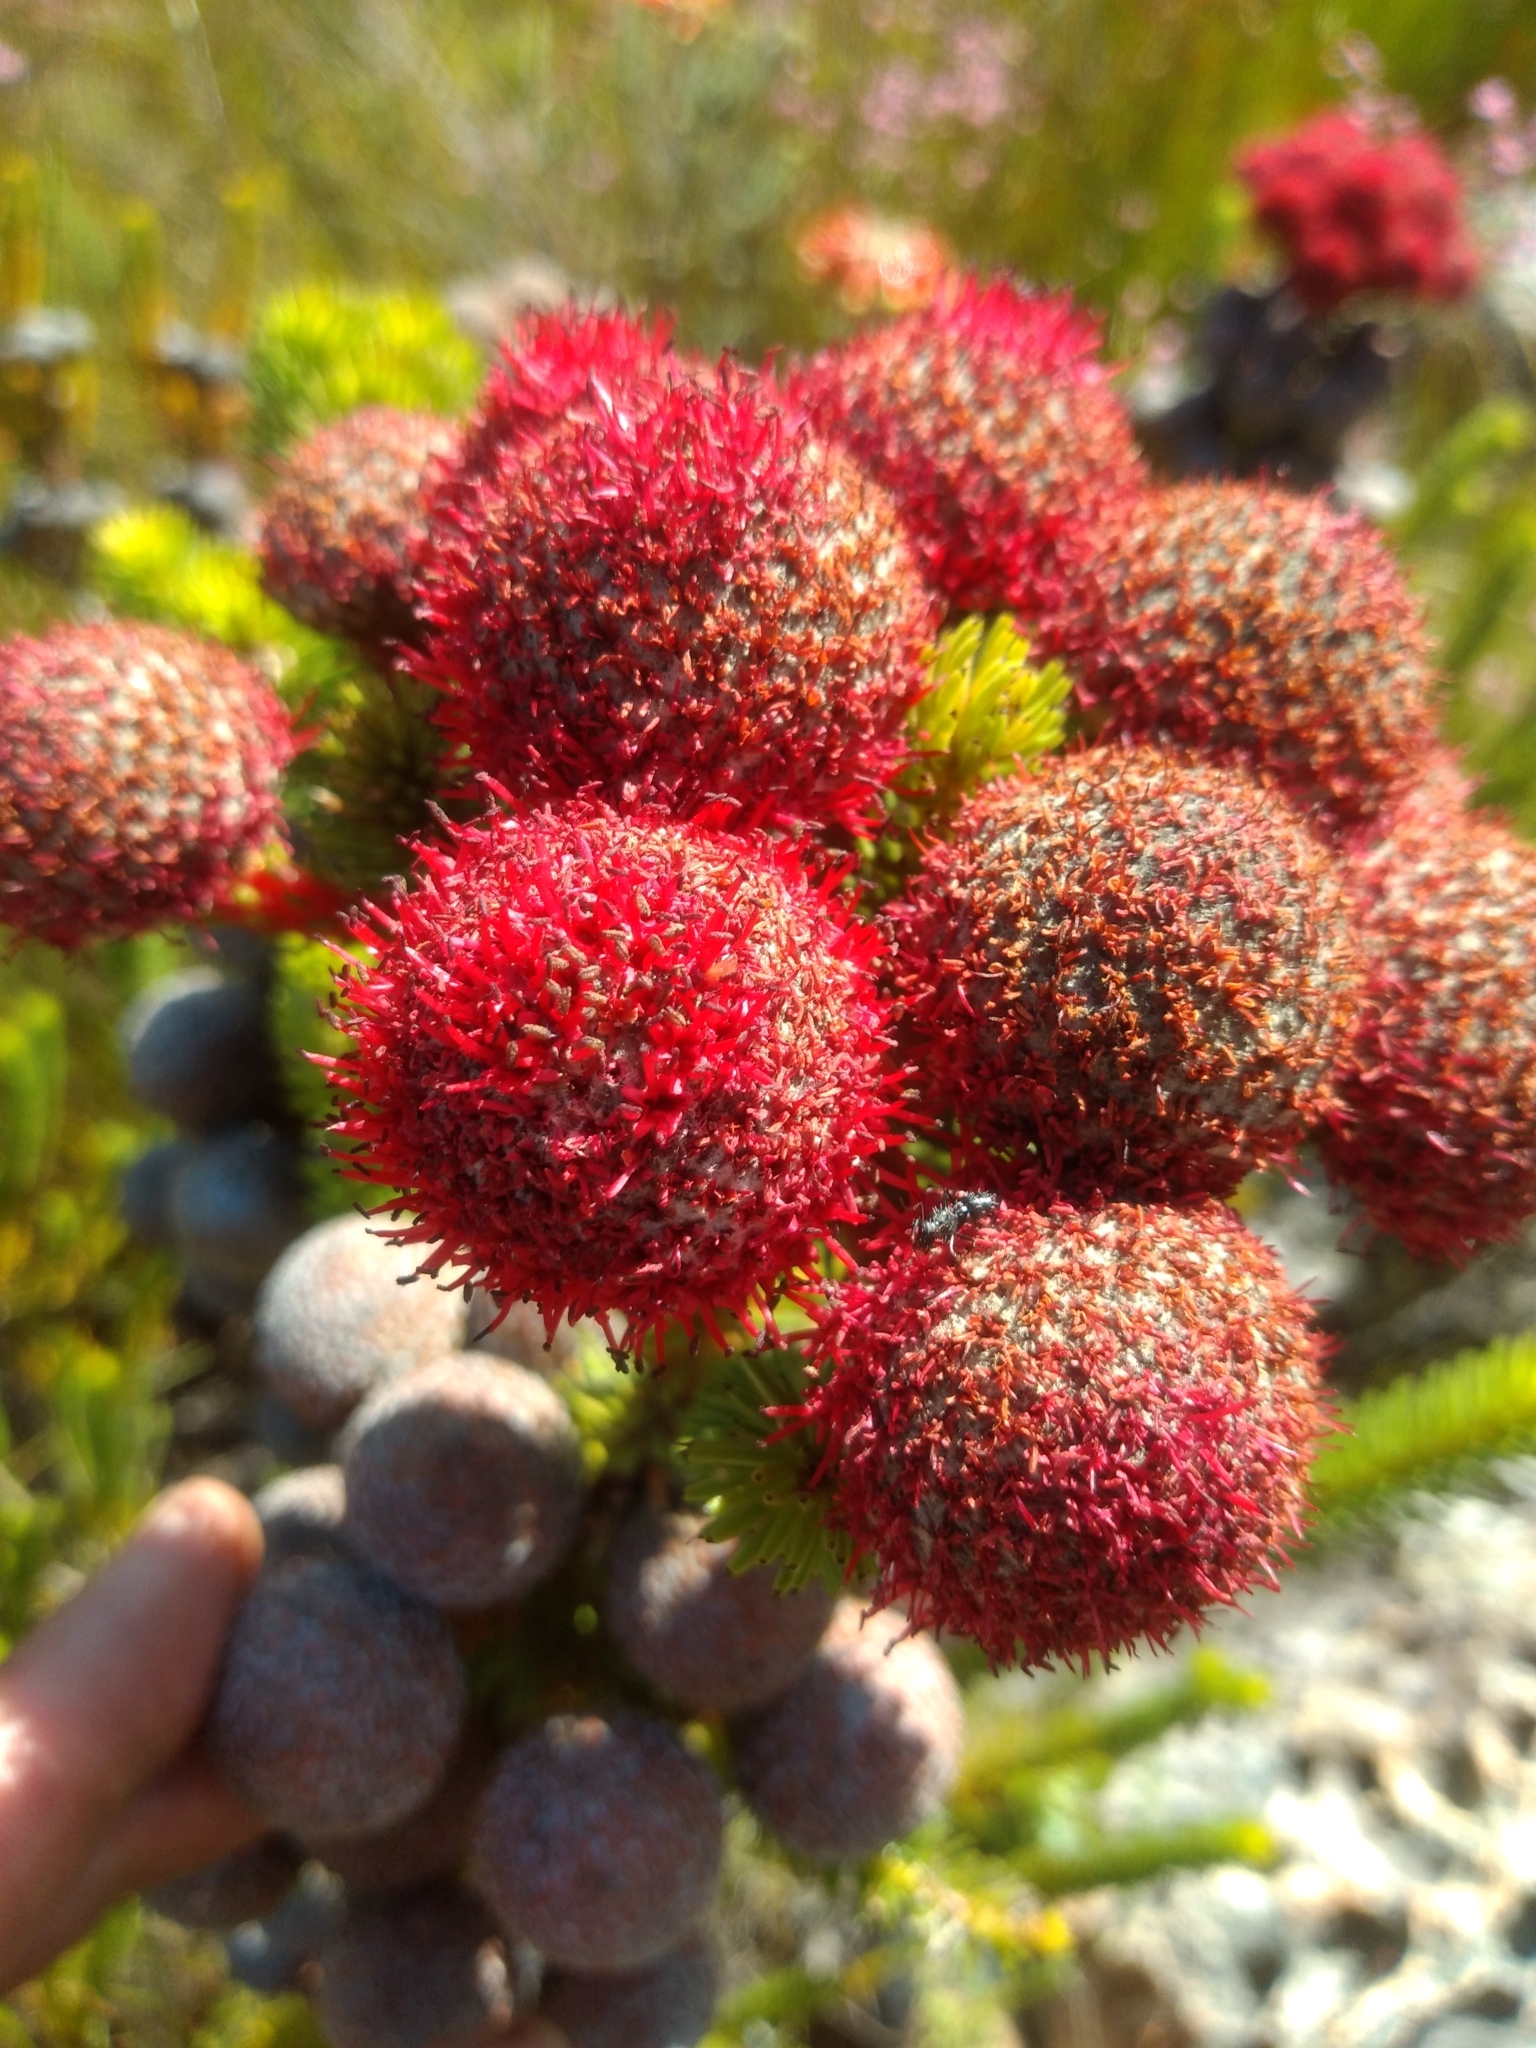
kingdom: Plantae
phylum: Tracheophyta
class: Magnoliopsida
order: Bruniales
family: Bruniaceae
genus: Berzelia
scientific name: Berzelia stokoei
